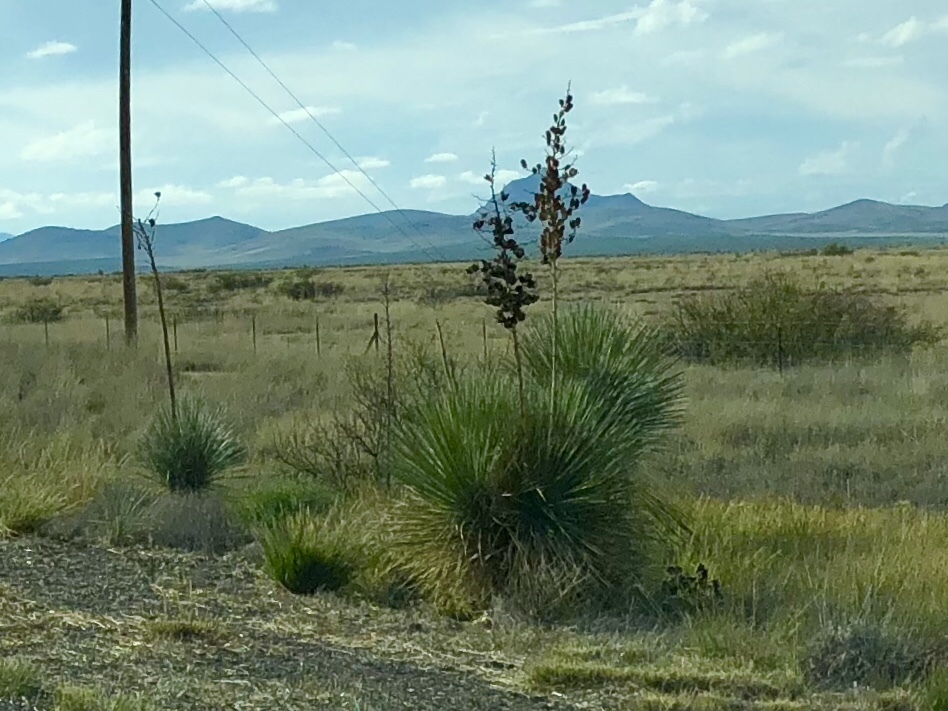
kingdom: Plantae
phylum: Tracheophyta
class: Liliopsida
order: Asparagales
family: Asparagaceae
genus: Yucca
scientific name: Yucca elata
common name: Palmella
